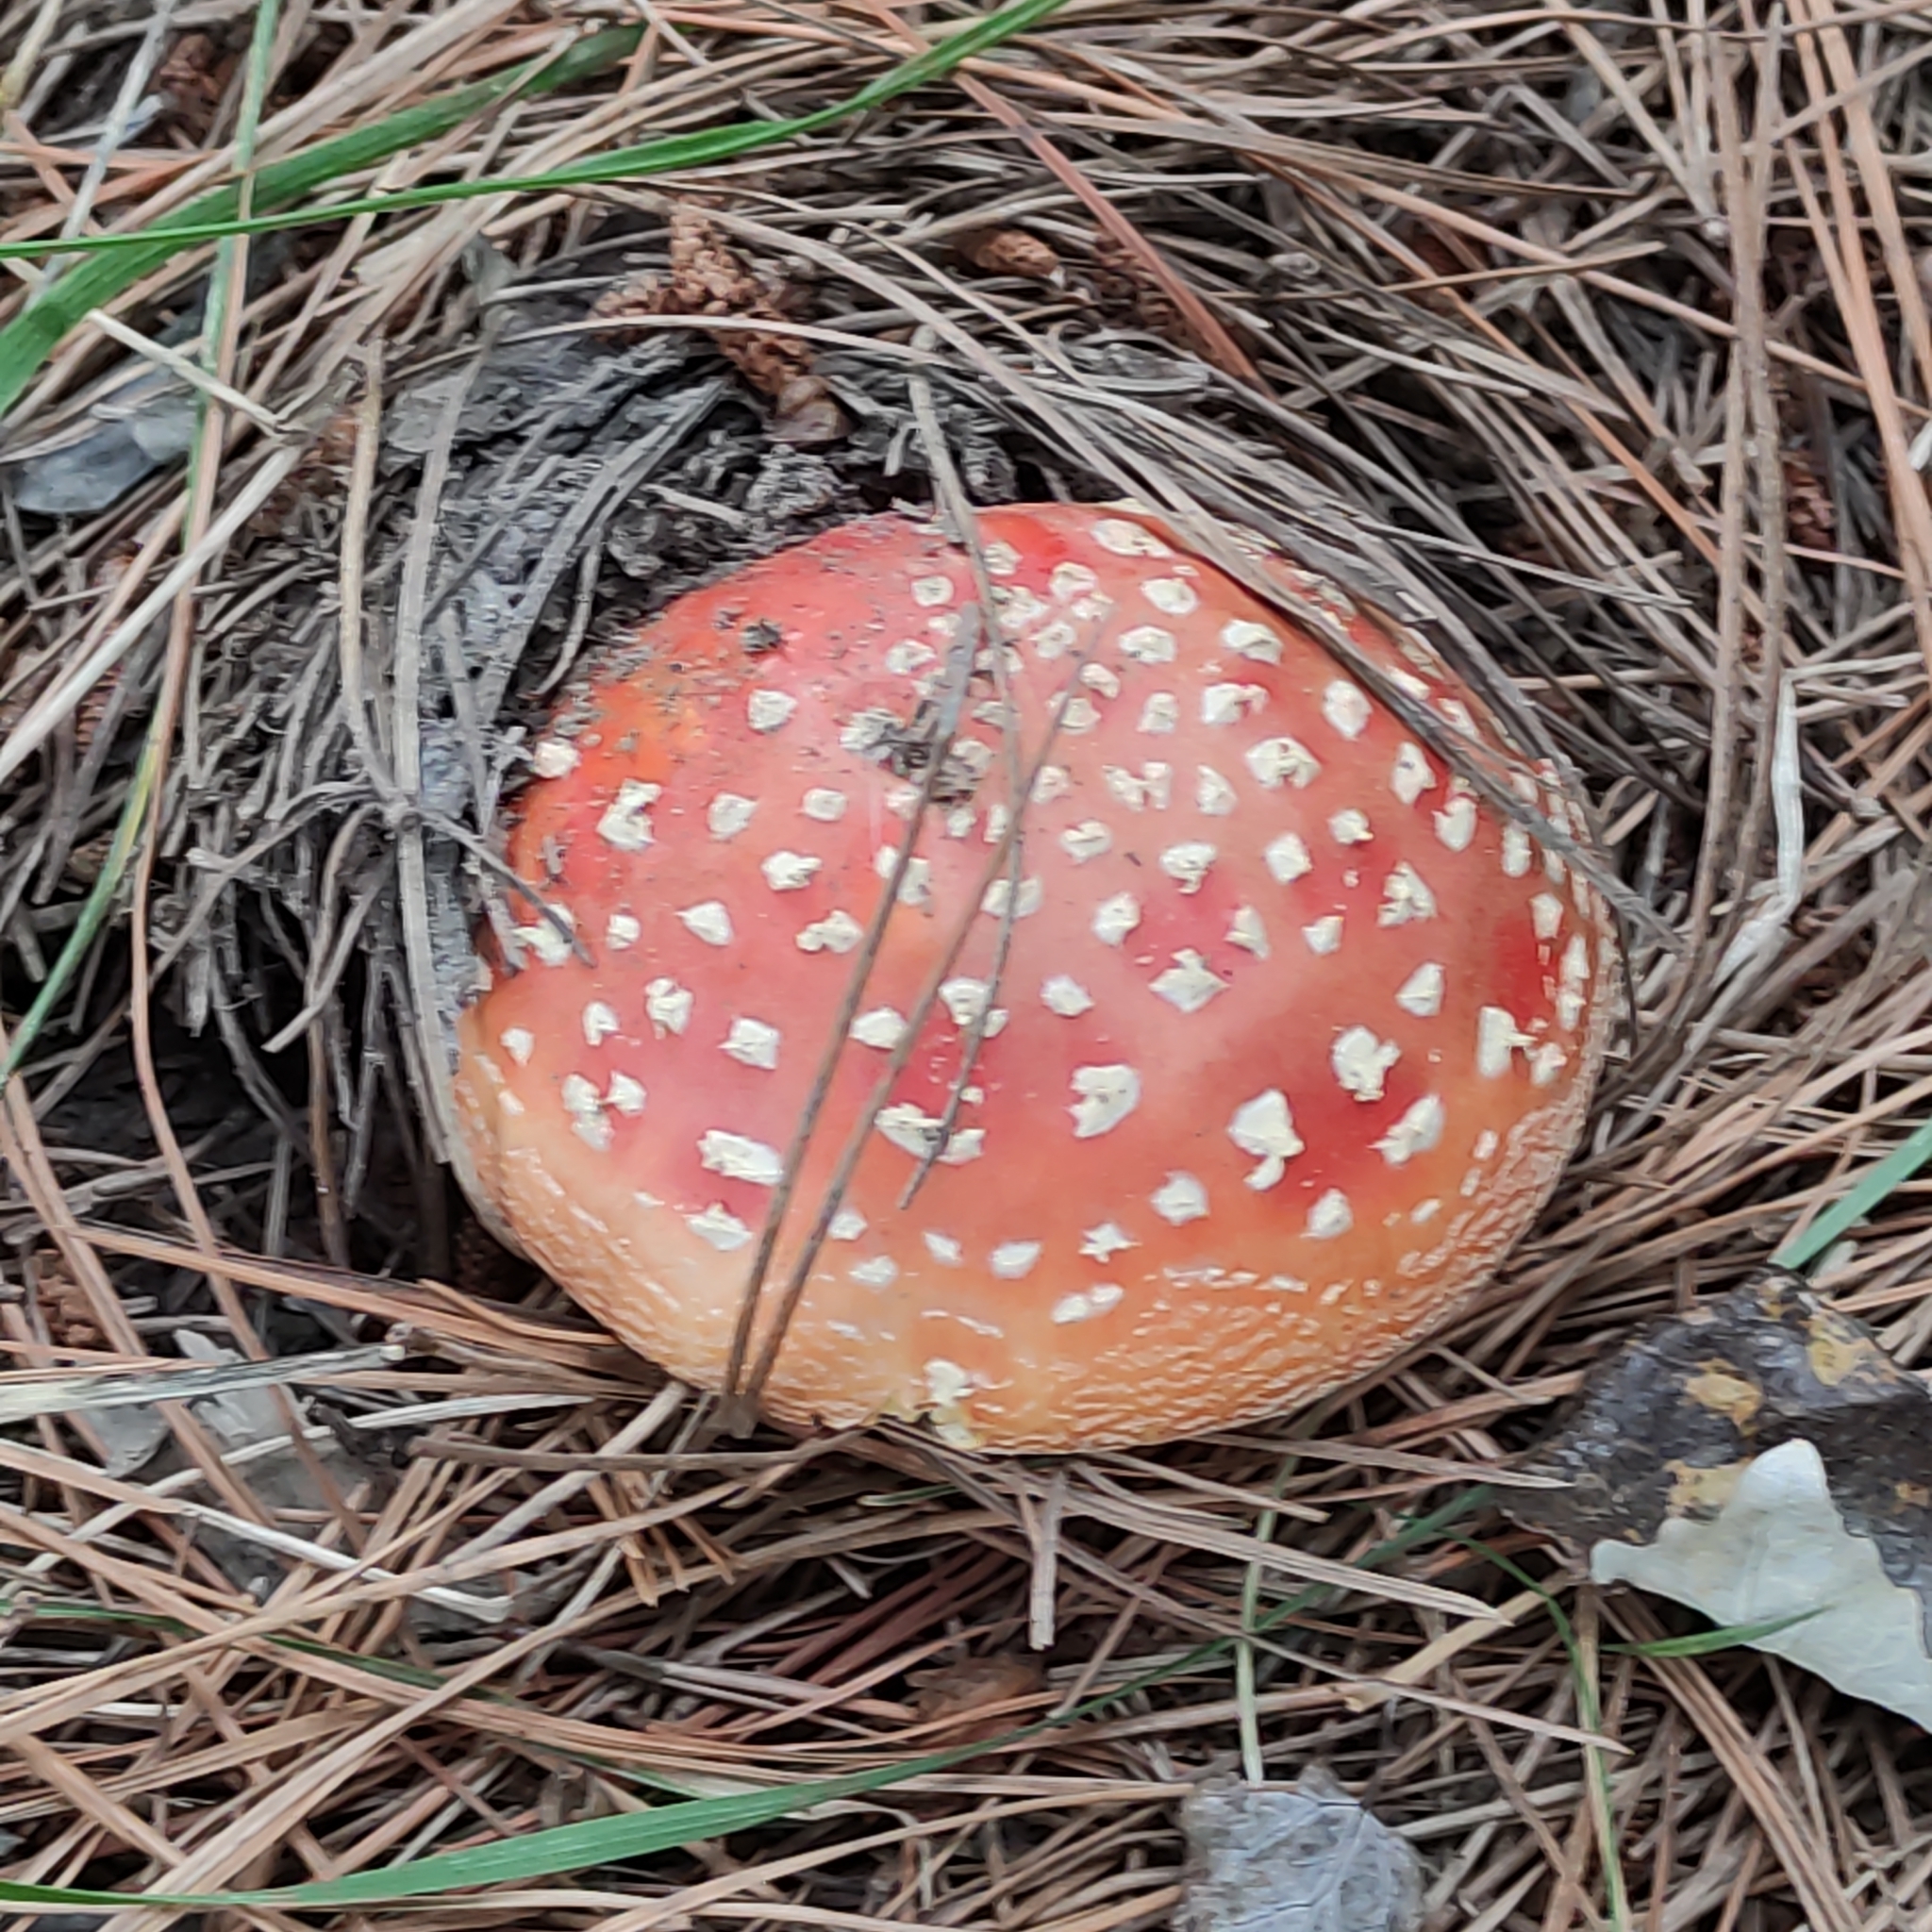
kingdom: Fungi
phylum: Basidiomycota
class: Agaricomycetes
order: Agaricales
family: Amanitaceae
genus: Amanita
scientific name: Amanita muscaria
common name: Fly agaric
